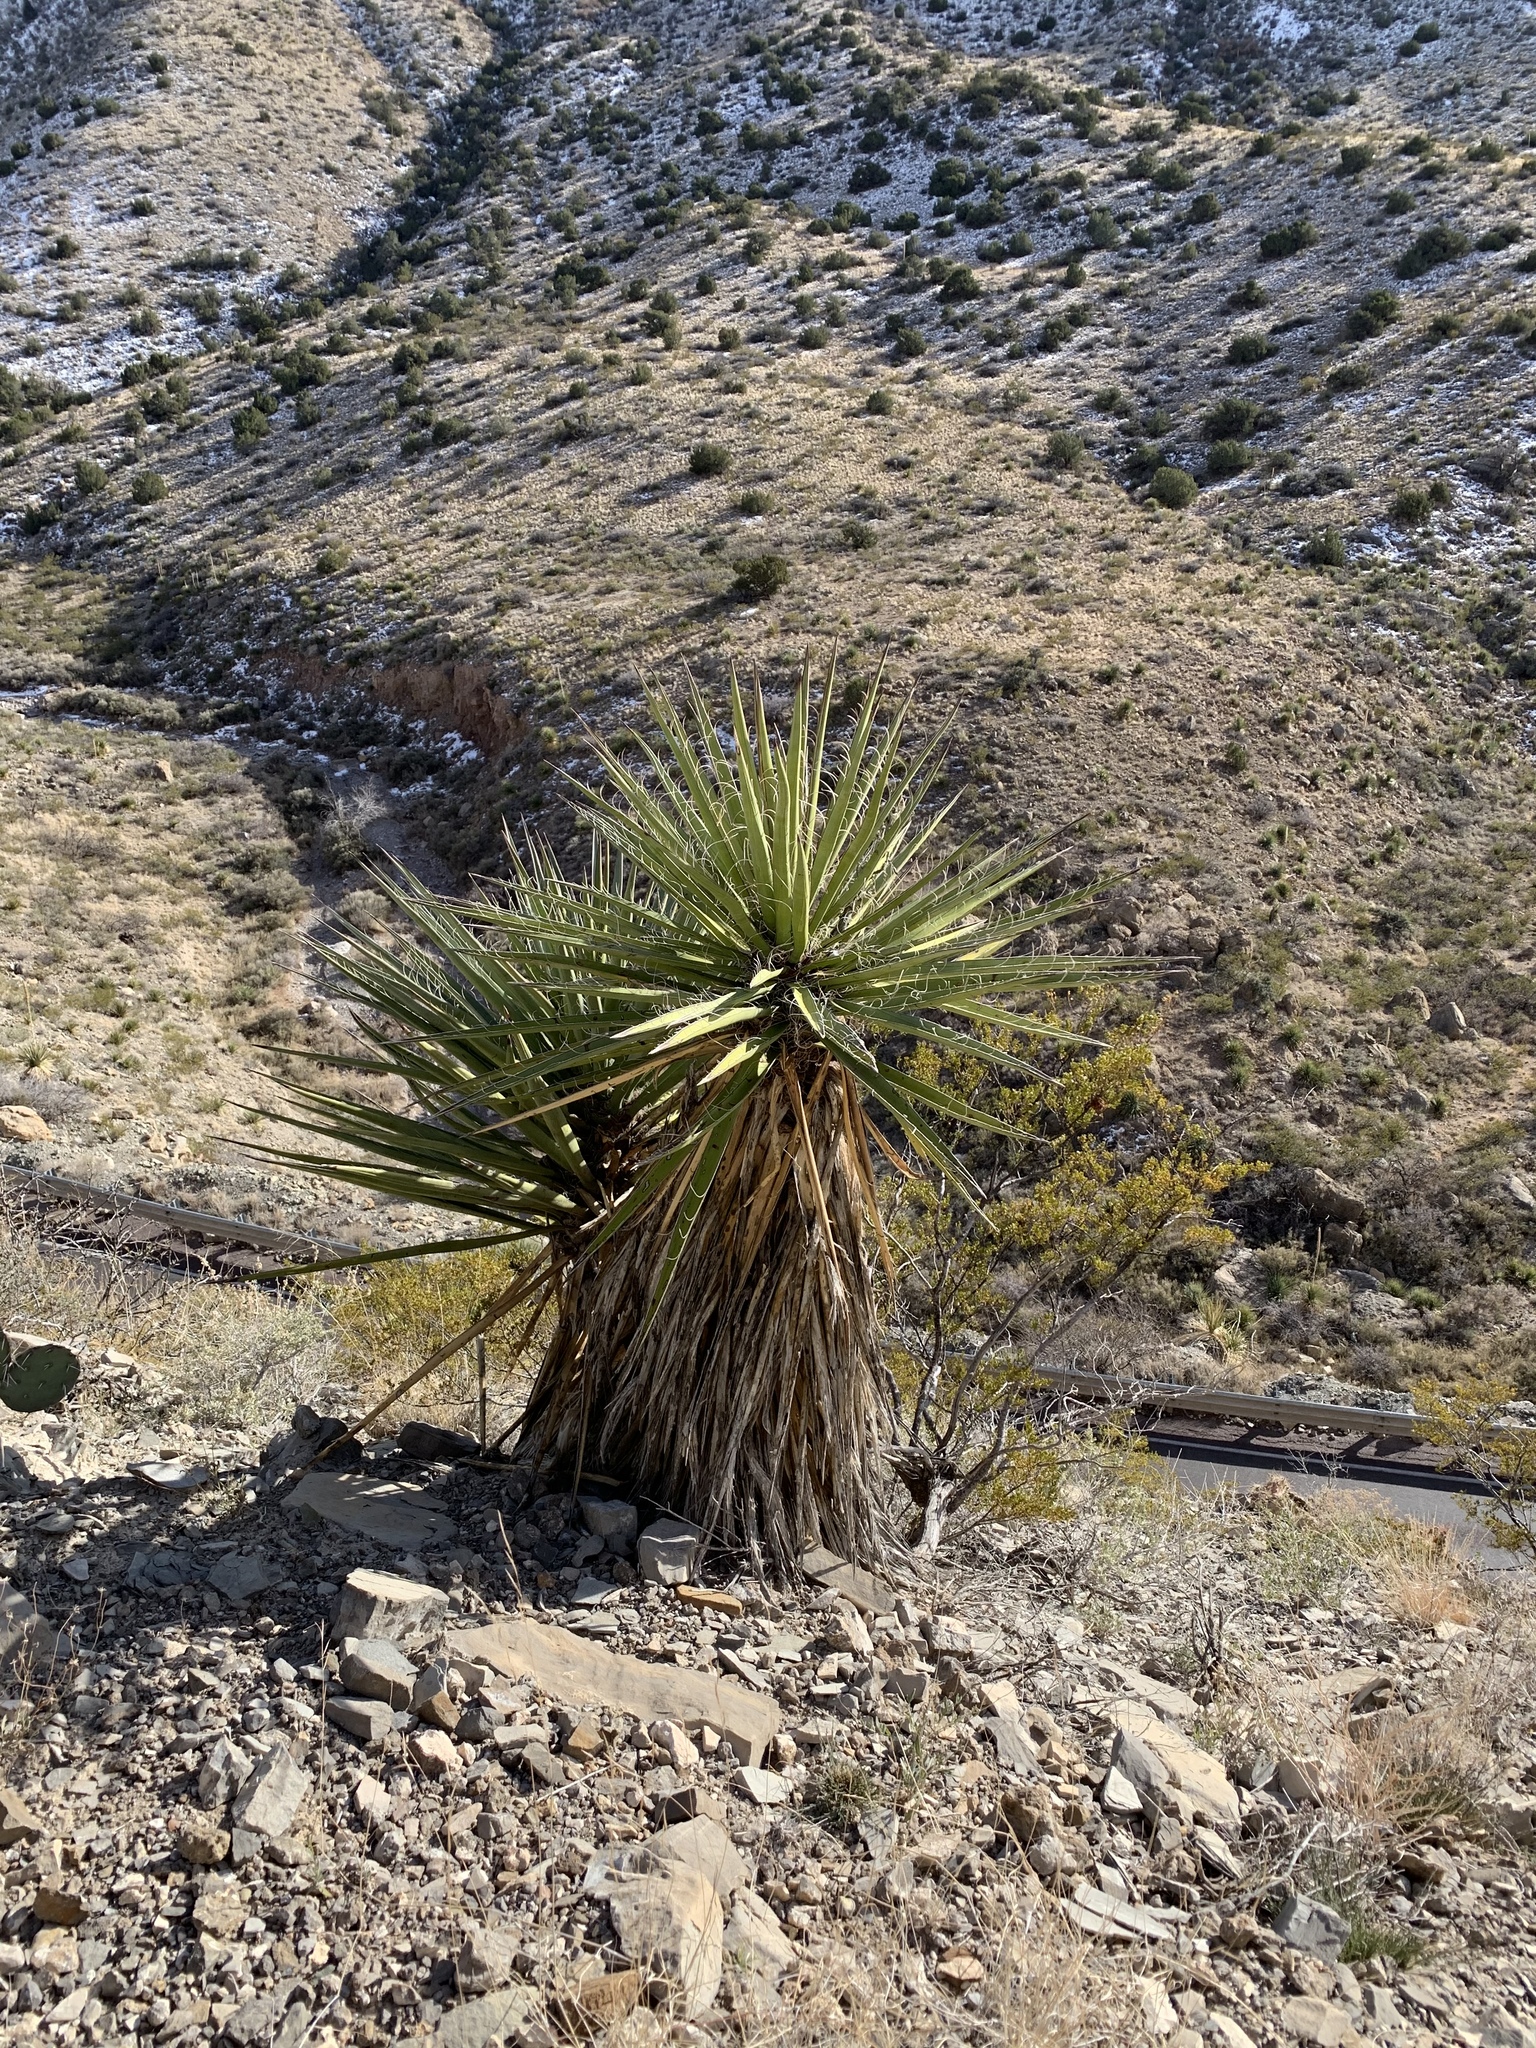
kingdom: Plantae
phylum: Tracheophyta
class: Liliopsida
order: Asparagales
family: Asparagaceae
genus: Yucca
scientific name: Yucca treculiana
